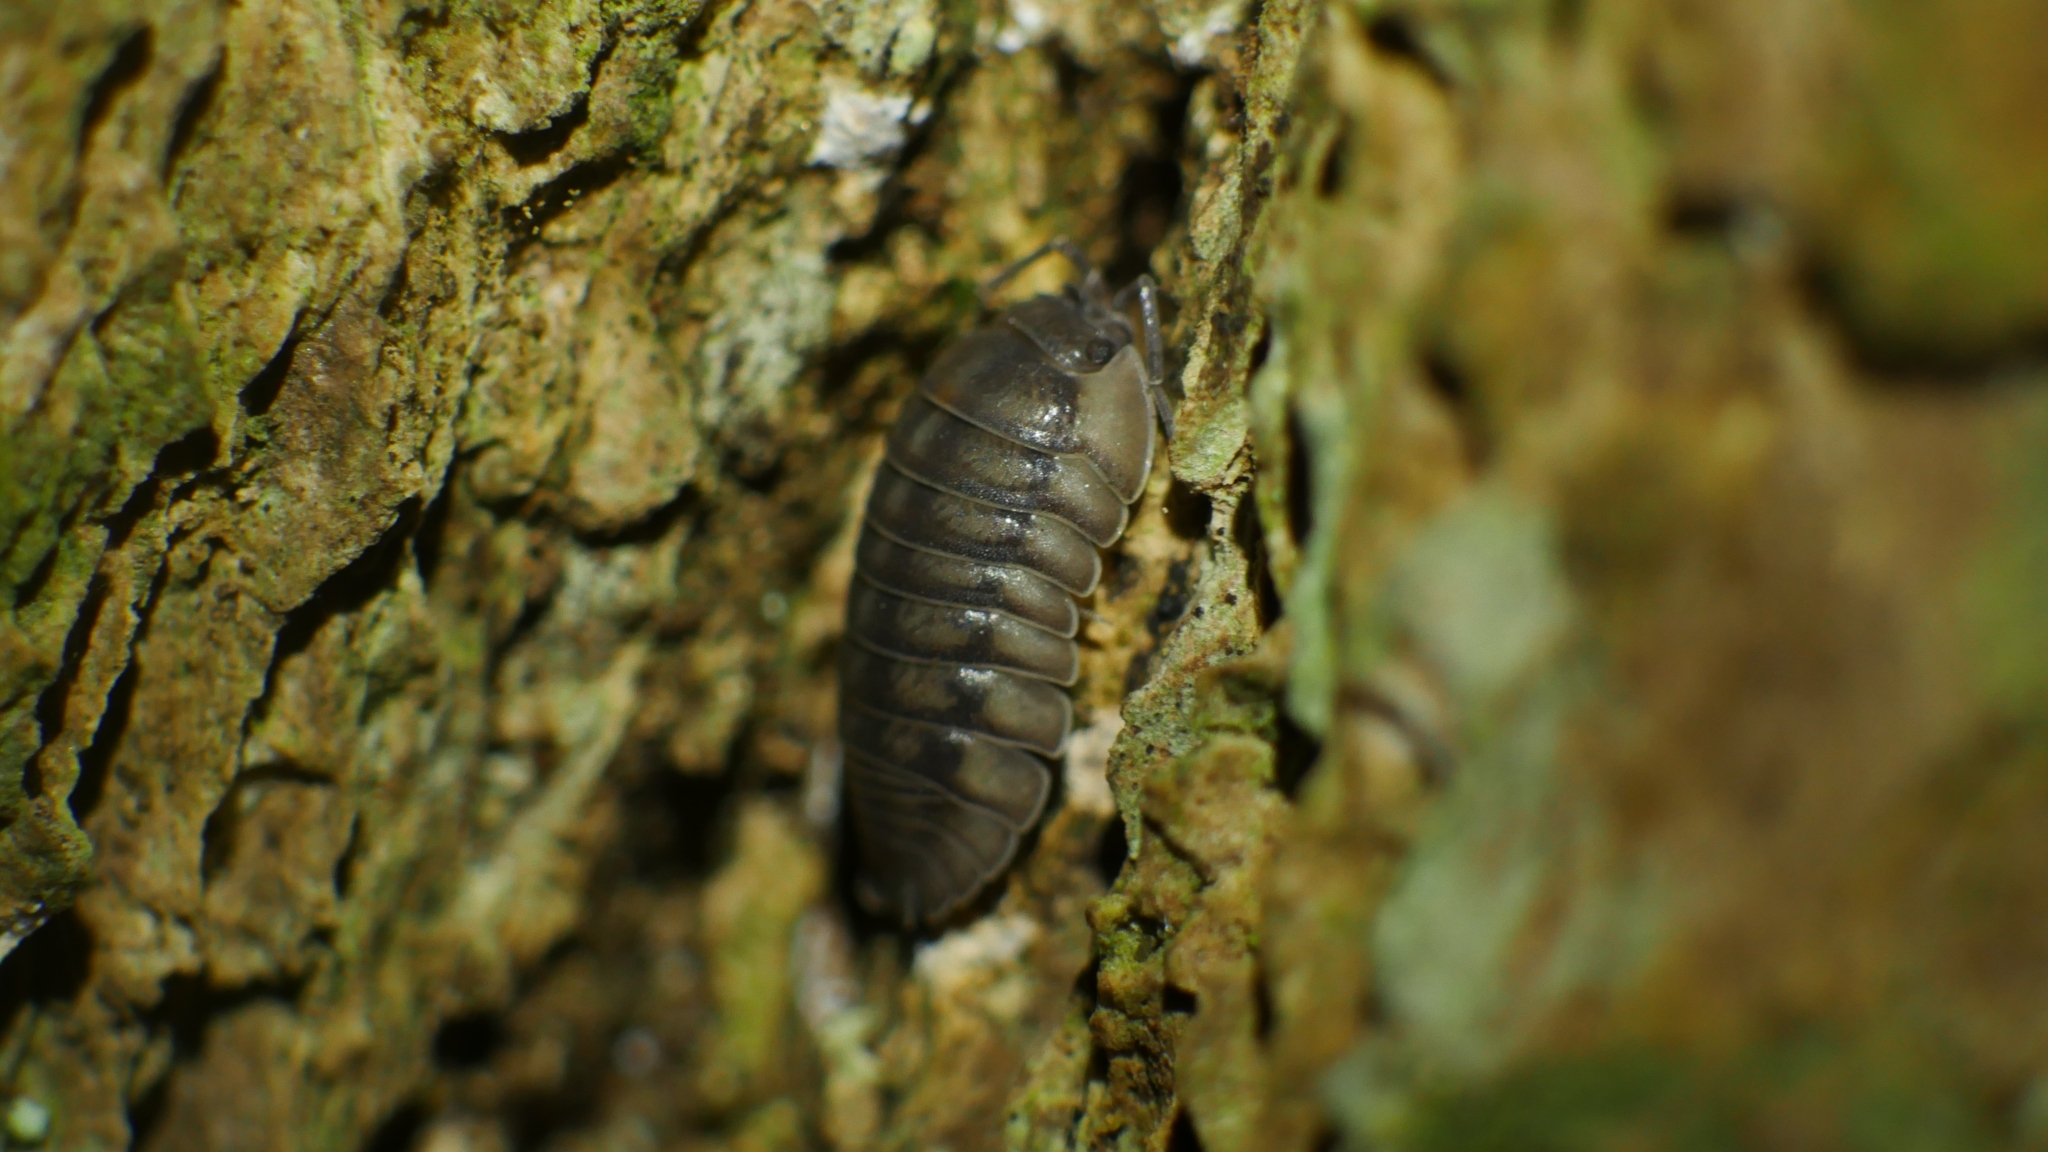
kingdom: Animalia
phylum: Arthropoda
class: Malacostraca
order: Isopoda
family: Armadillidiidae
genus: Armadillidium
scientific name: Armadillidium nasatum
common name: Isopod
